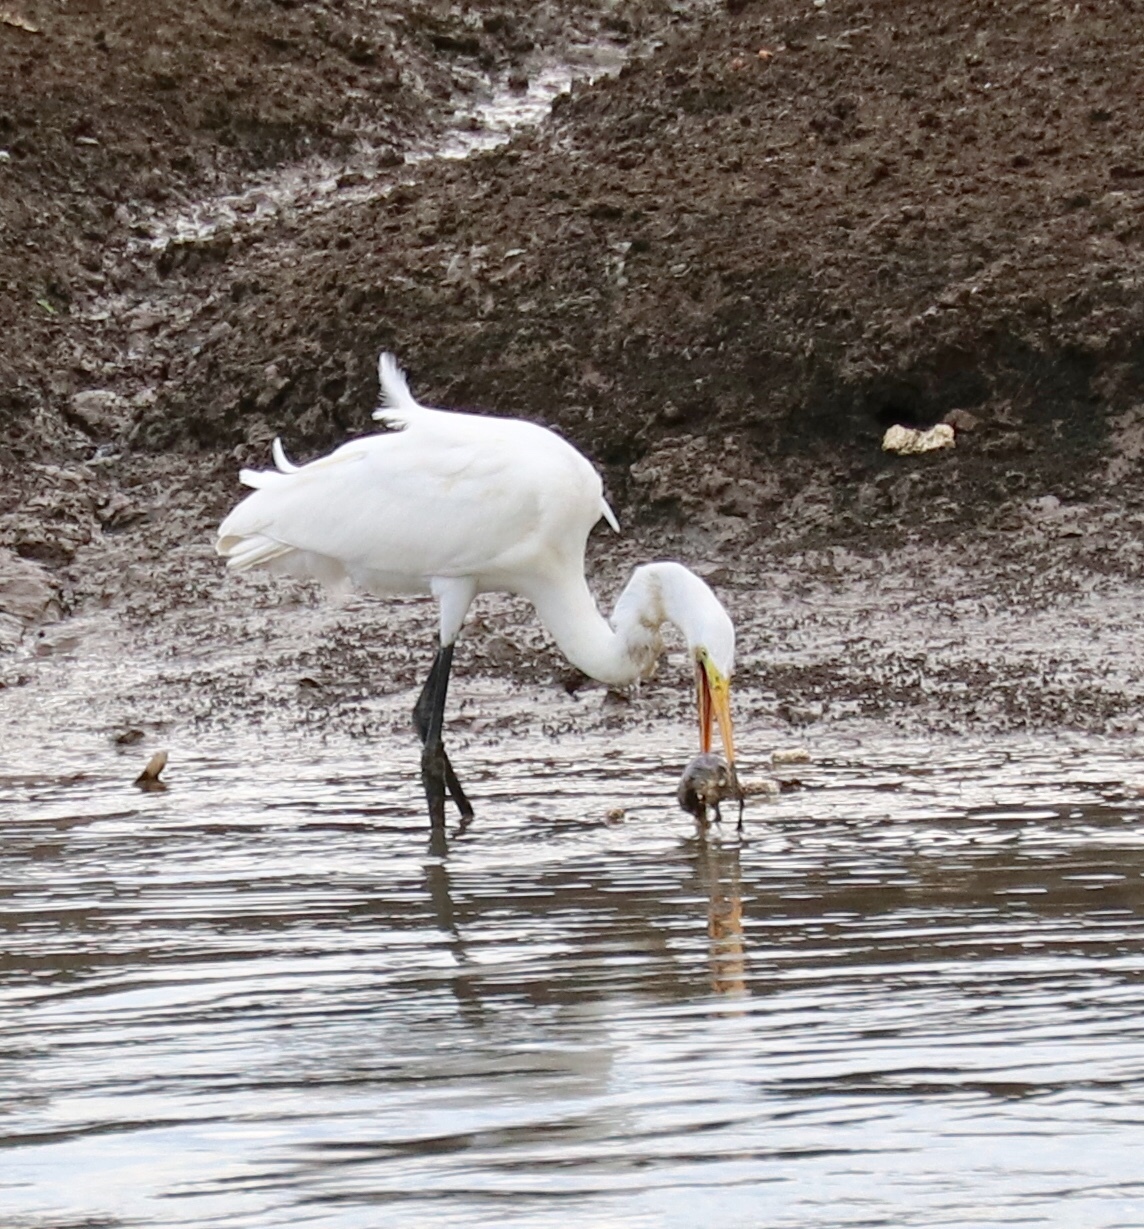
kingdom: Animalia
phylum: Chordata
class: Aves
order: Pelecaniformes
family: Ardeidae
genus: Ardea
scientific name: Ardea alba
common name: Great egret
